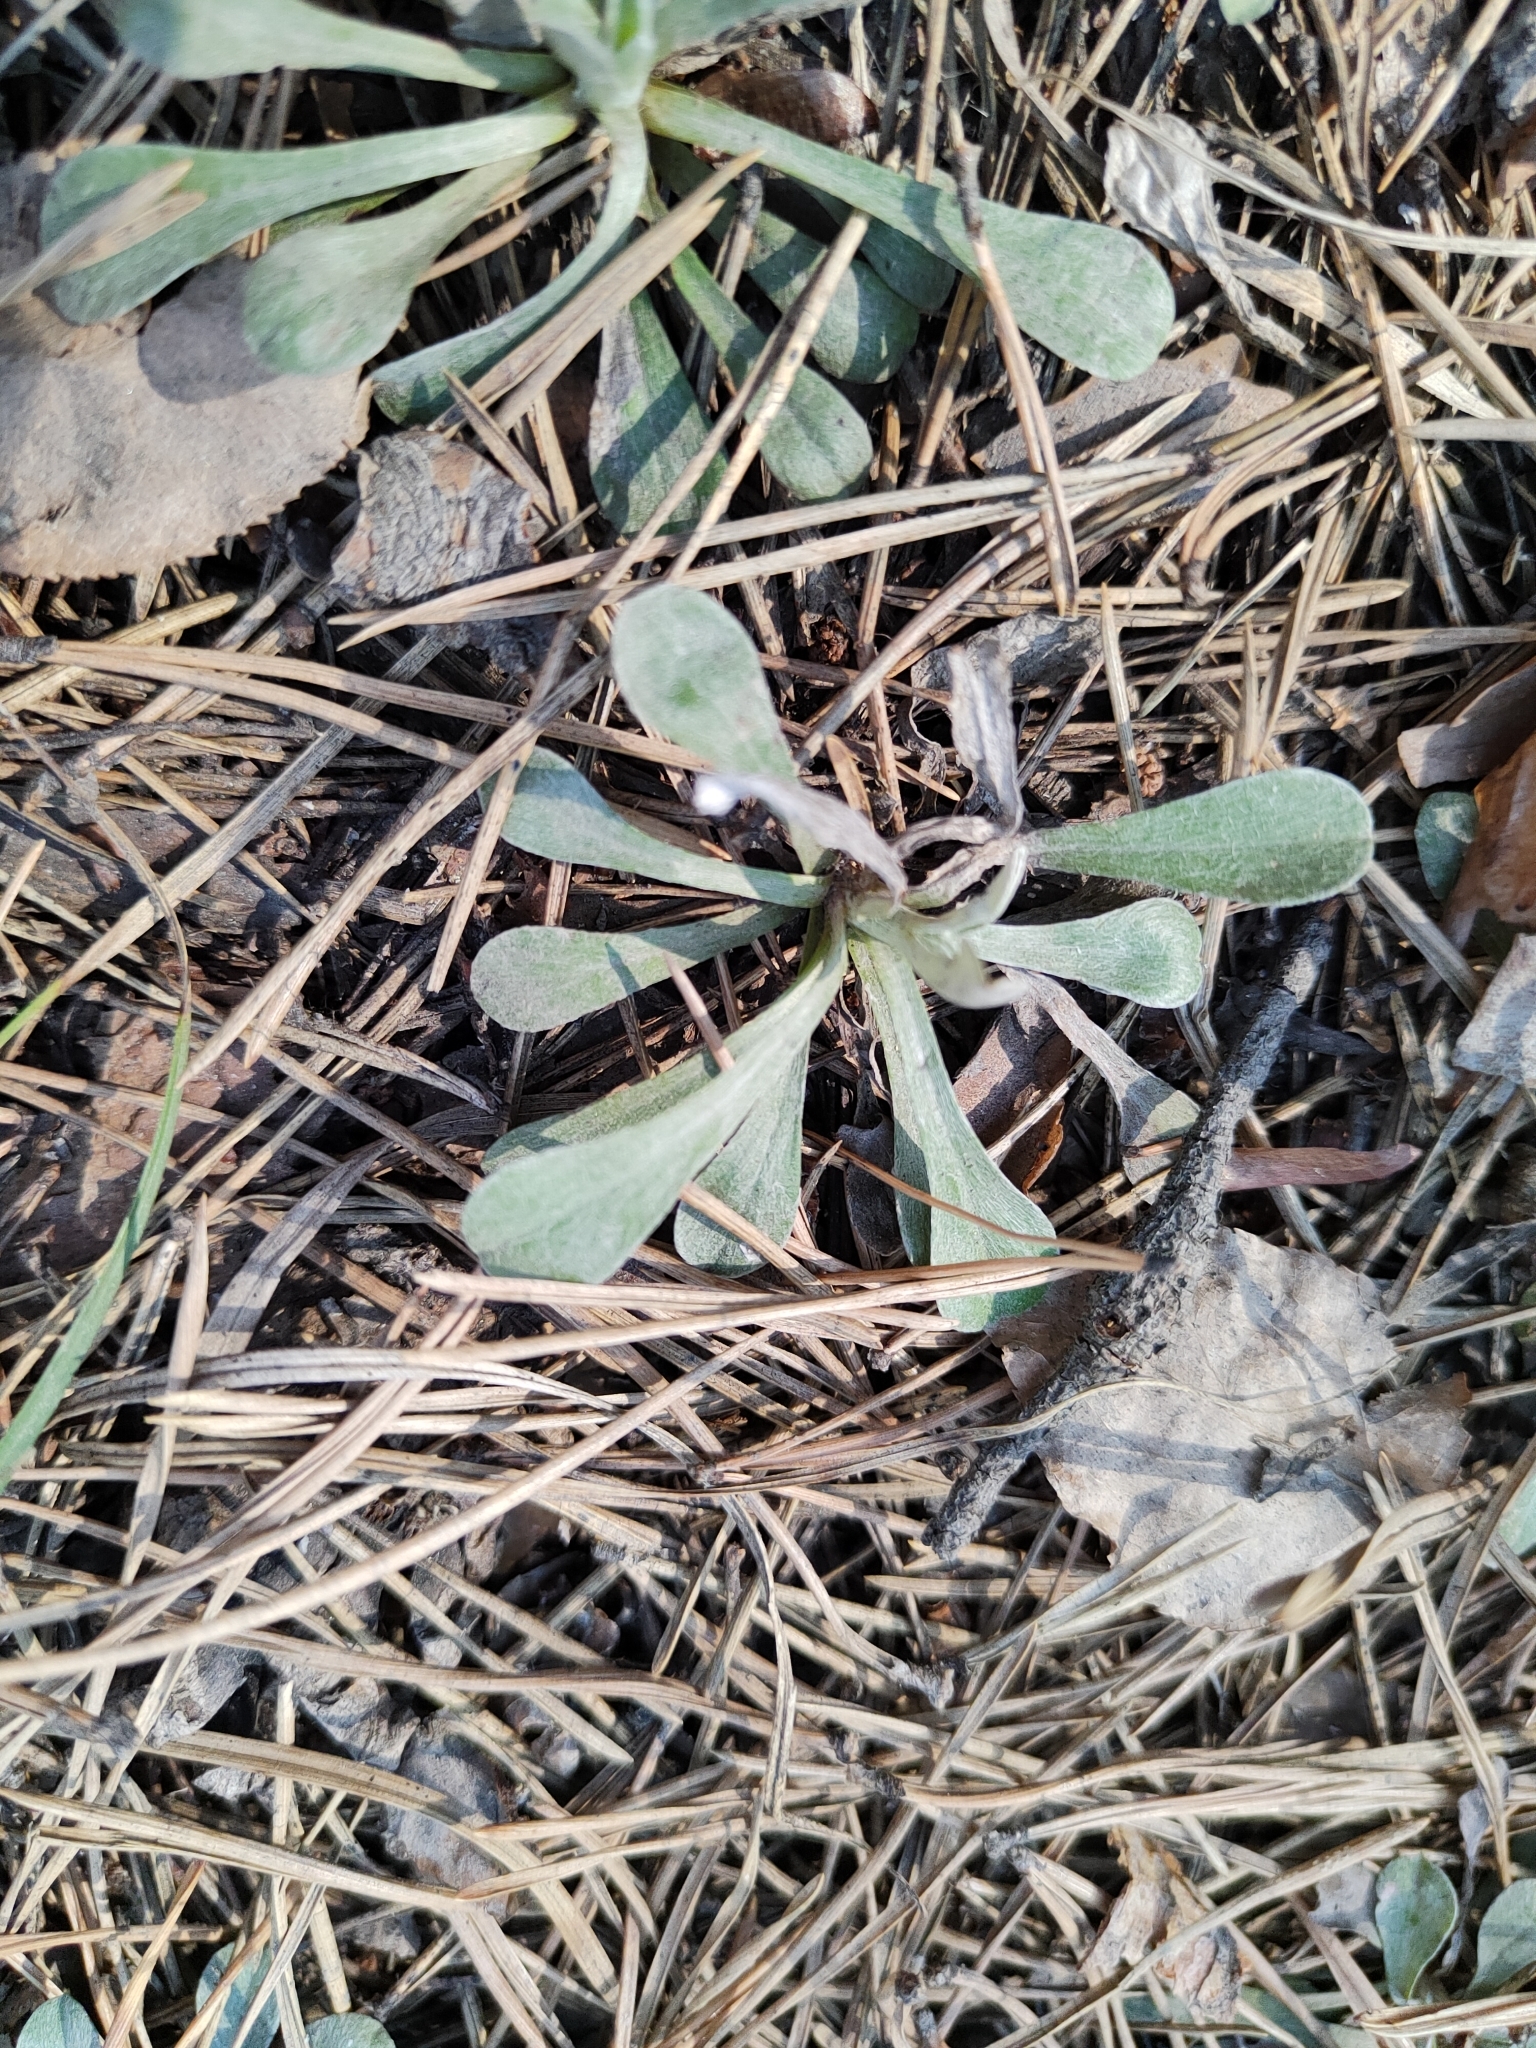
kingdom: Plantae
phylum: Tracheophyta
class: Magnoliopsida
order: Asterales
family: Asteraceae
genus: Antennaria
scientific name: Antennaria dioica
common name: Mountain everlasting
